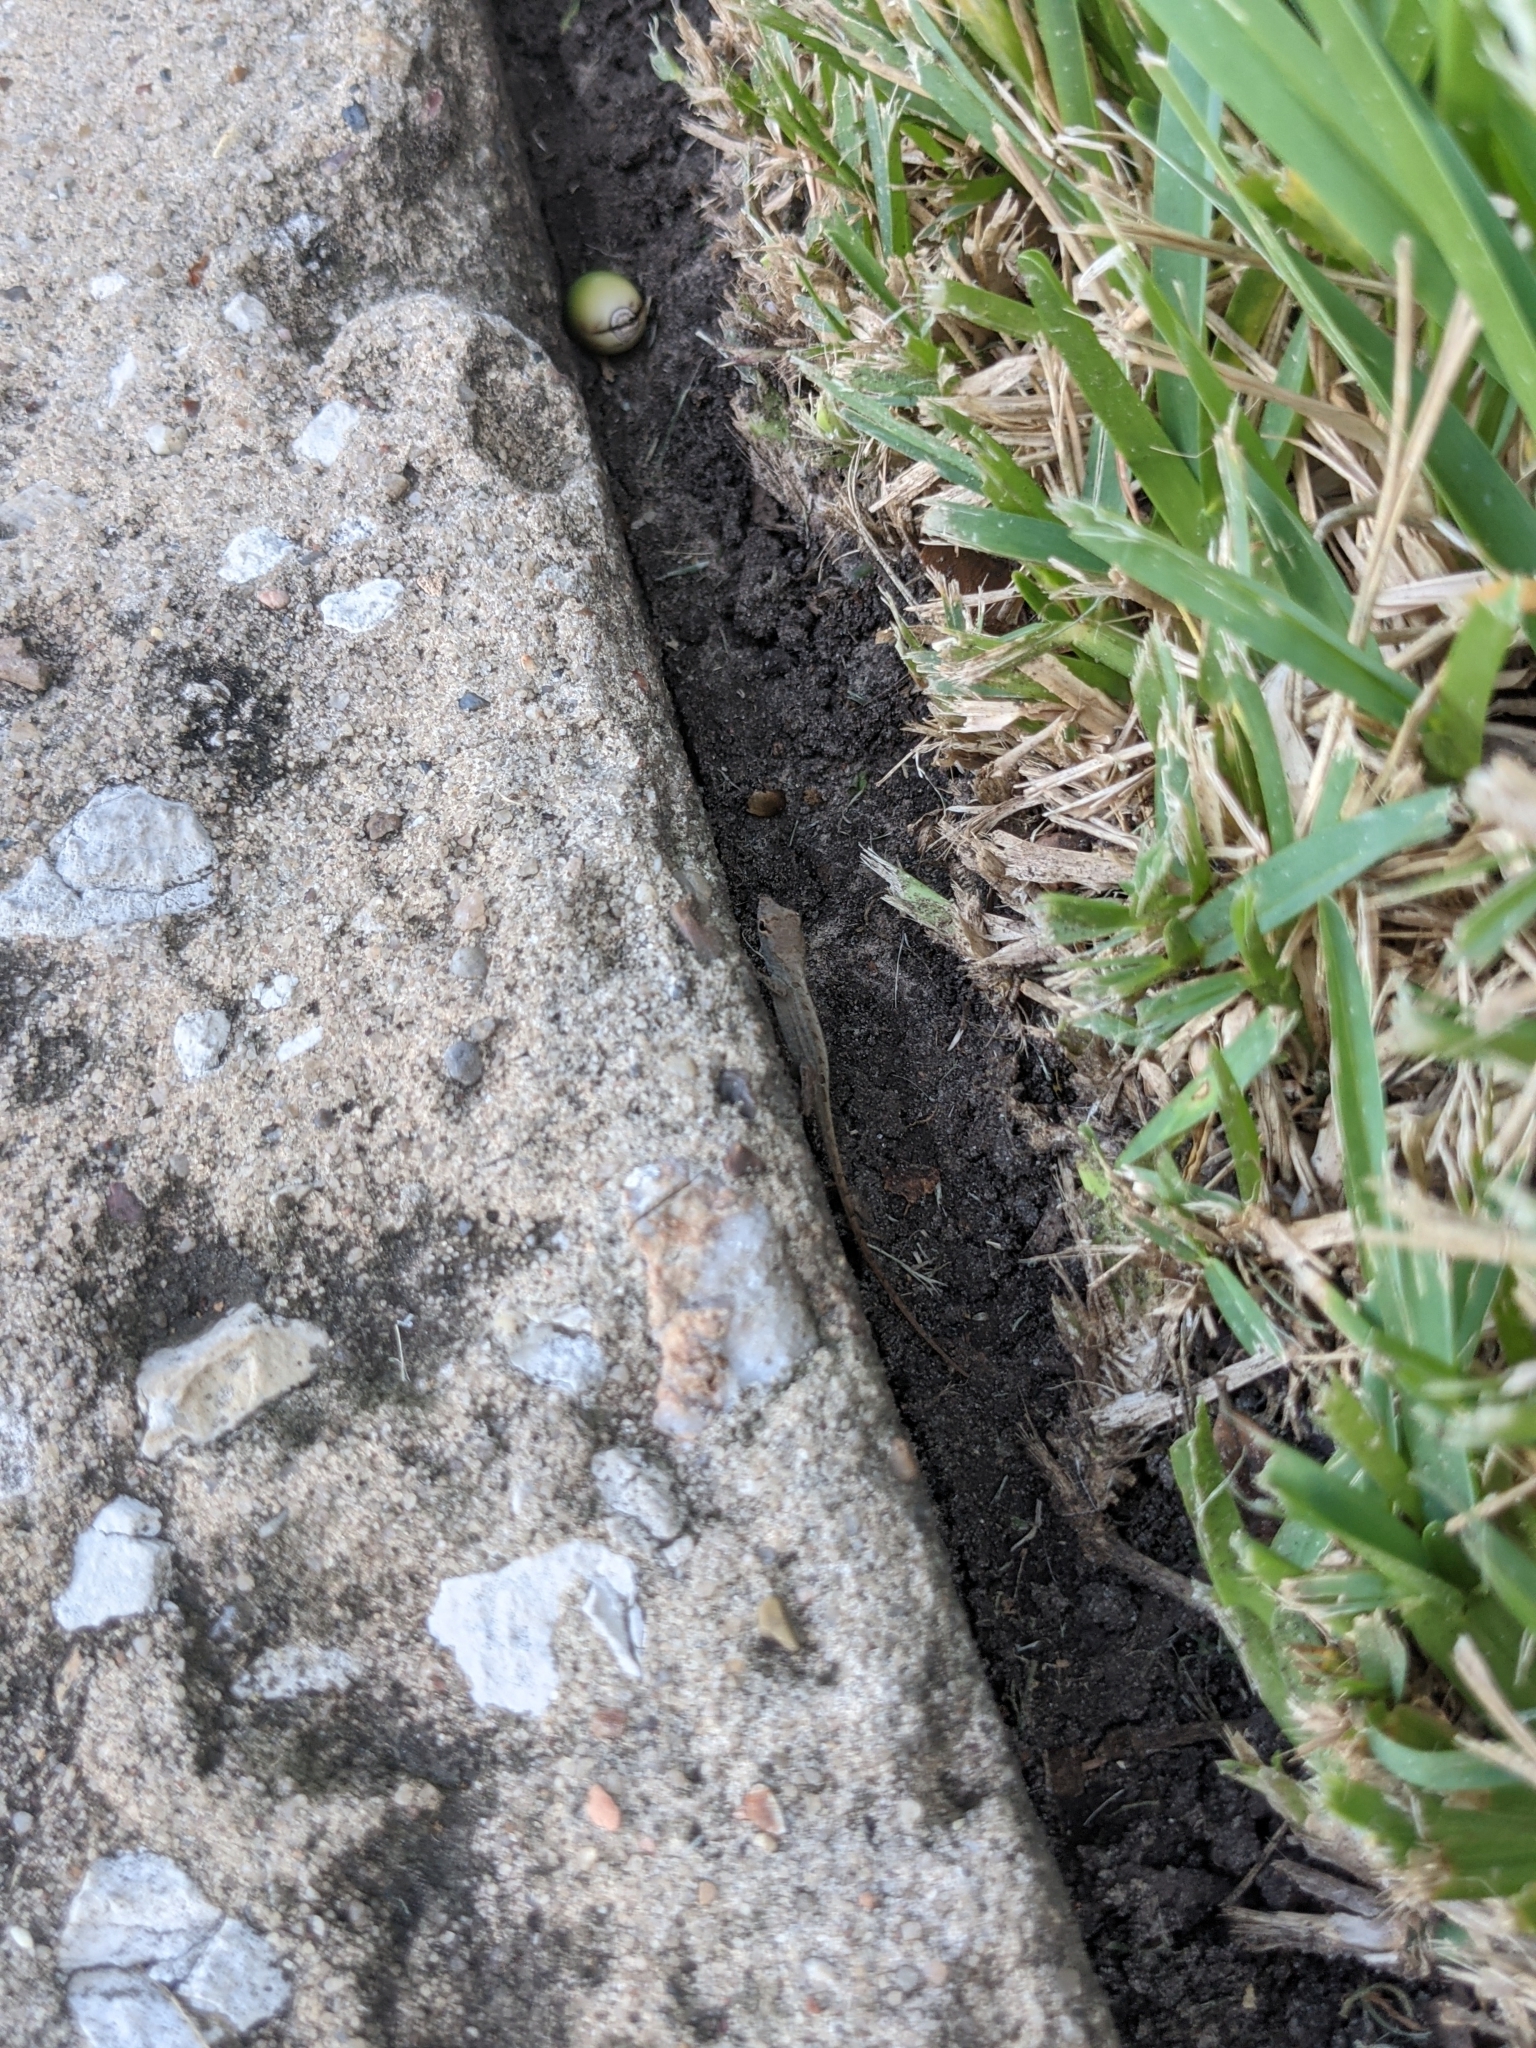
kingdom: Animalia
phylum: Chordata
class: Squamata
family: Dactyloidae
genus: Anolis
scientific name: Anolis sagrei
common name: Brown anole
